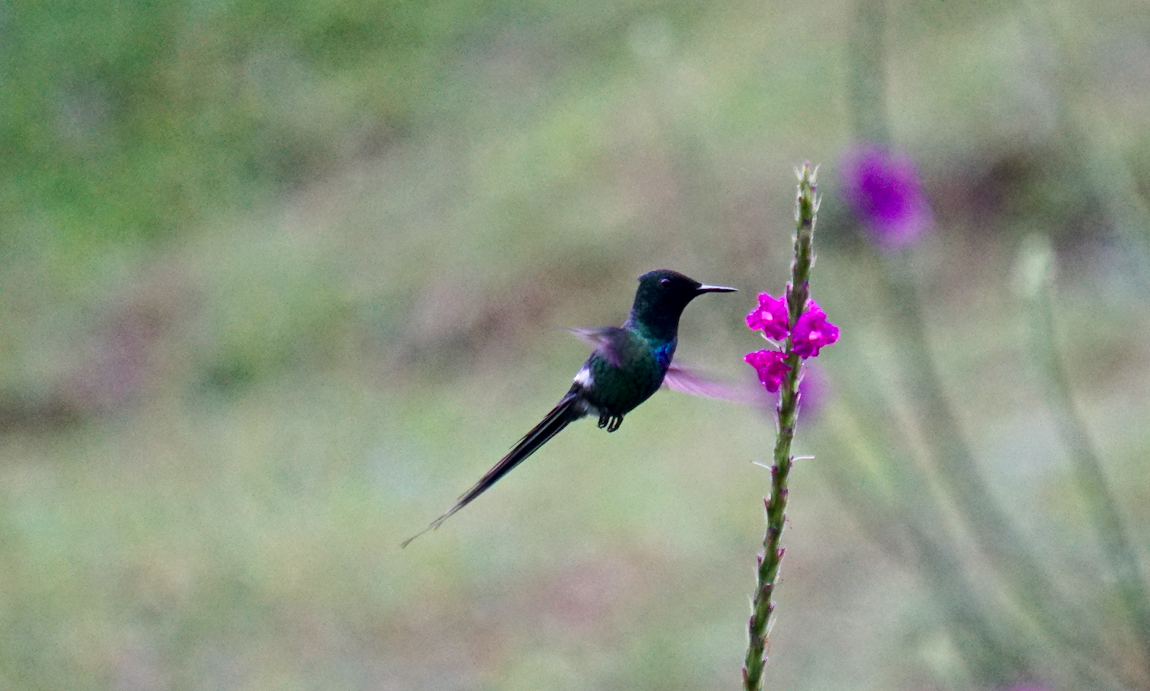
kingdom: Animalia
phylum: Chordata
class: Aves
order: Apodiformes
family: Trochilidae
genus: Discosura
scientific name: Discosura conversii
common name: Green thorntail
